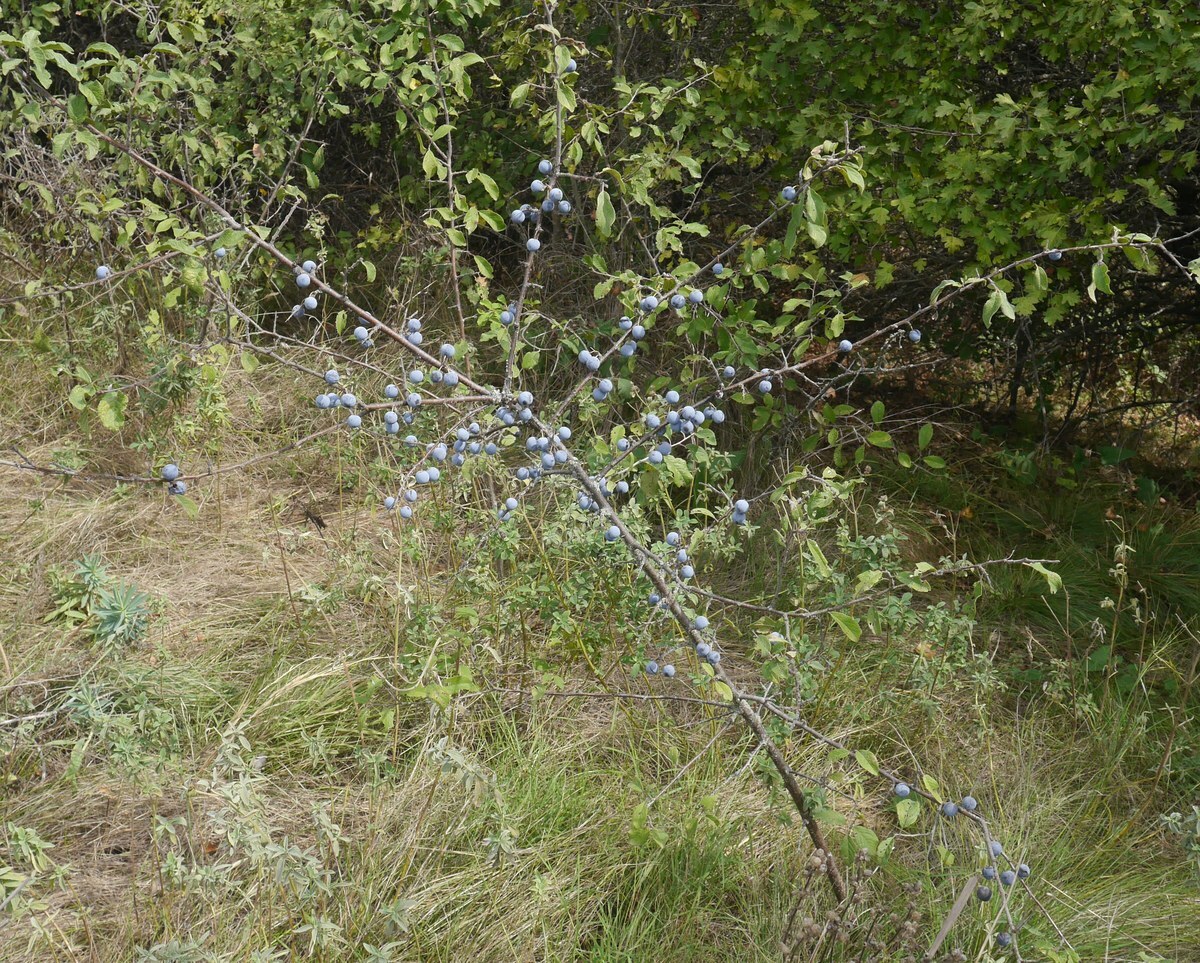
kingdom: Plantae
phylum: Tracheophyta
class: Magnoliopsida
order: Rosales
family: Rosaceae
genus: Prunus
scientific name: Prunus spinosa
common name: Blackthorn
